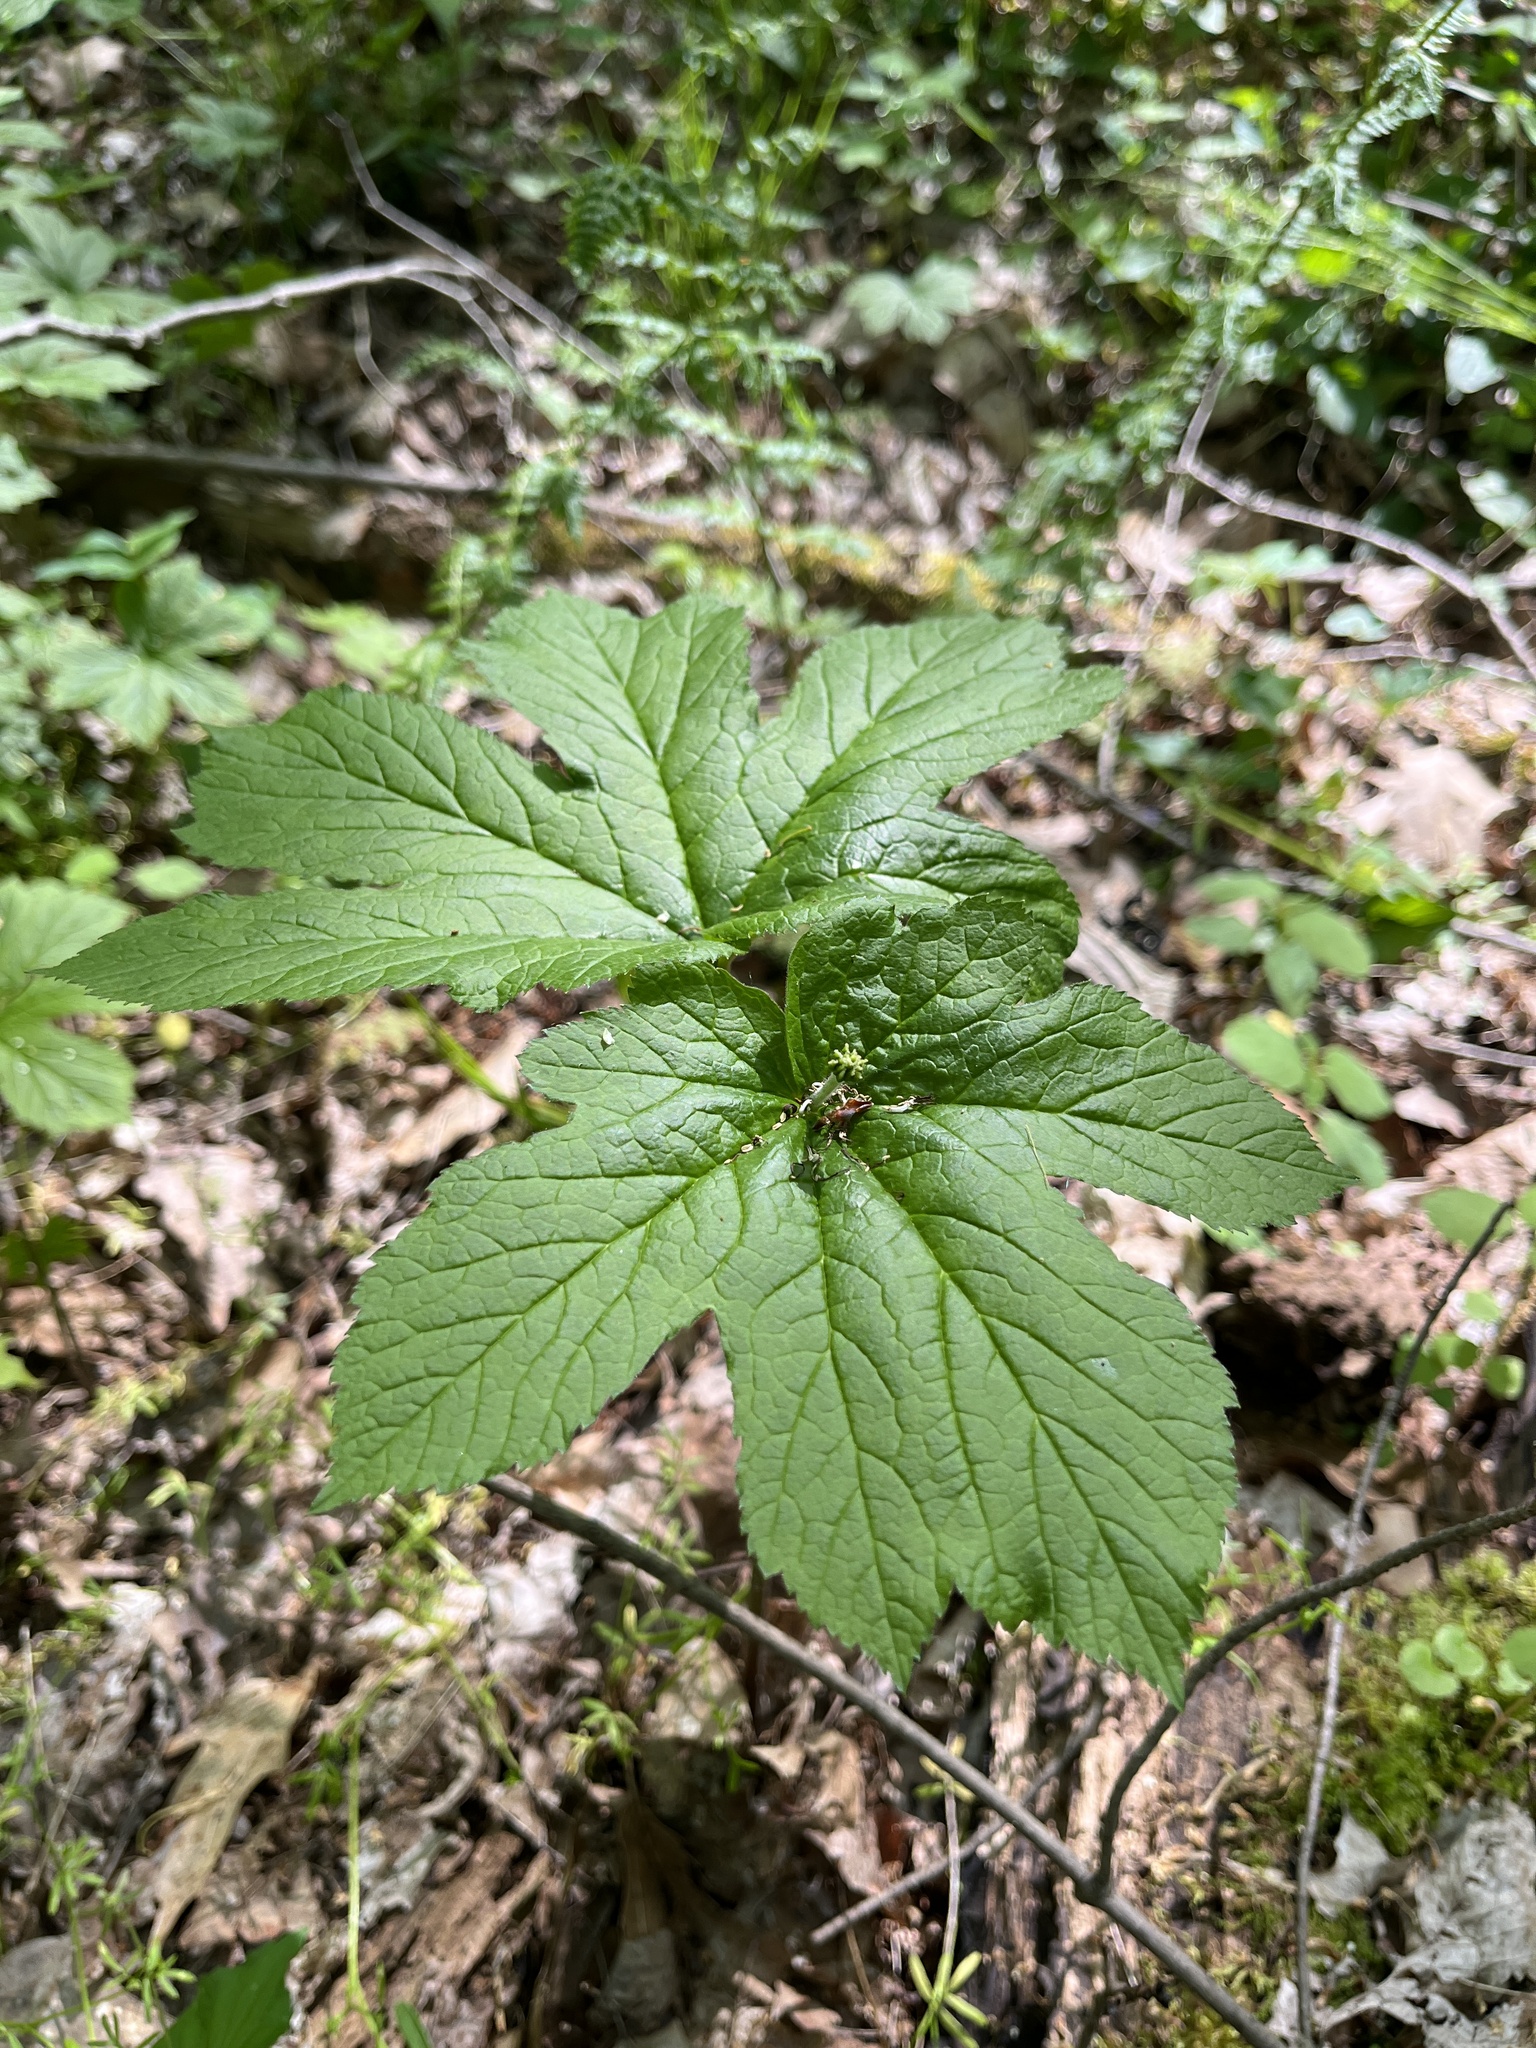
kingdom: Plantae
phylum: Tracheophyta
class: Magnoliopsida
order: Ranunculales
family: Ranunculaceae
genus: Hydrastis
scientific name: Hydrastis canadensis
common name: Goldenseal
